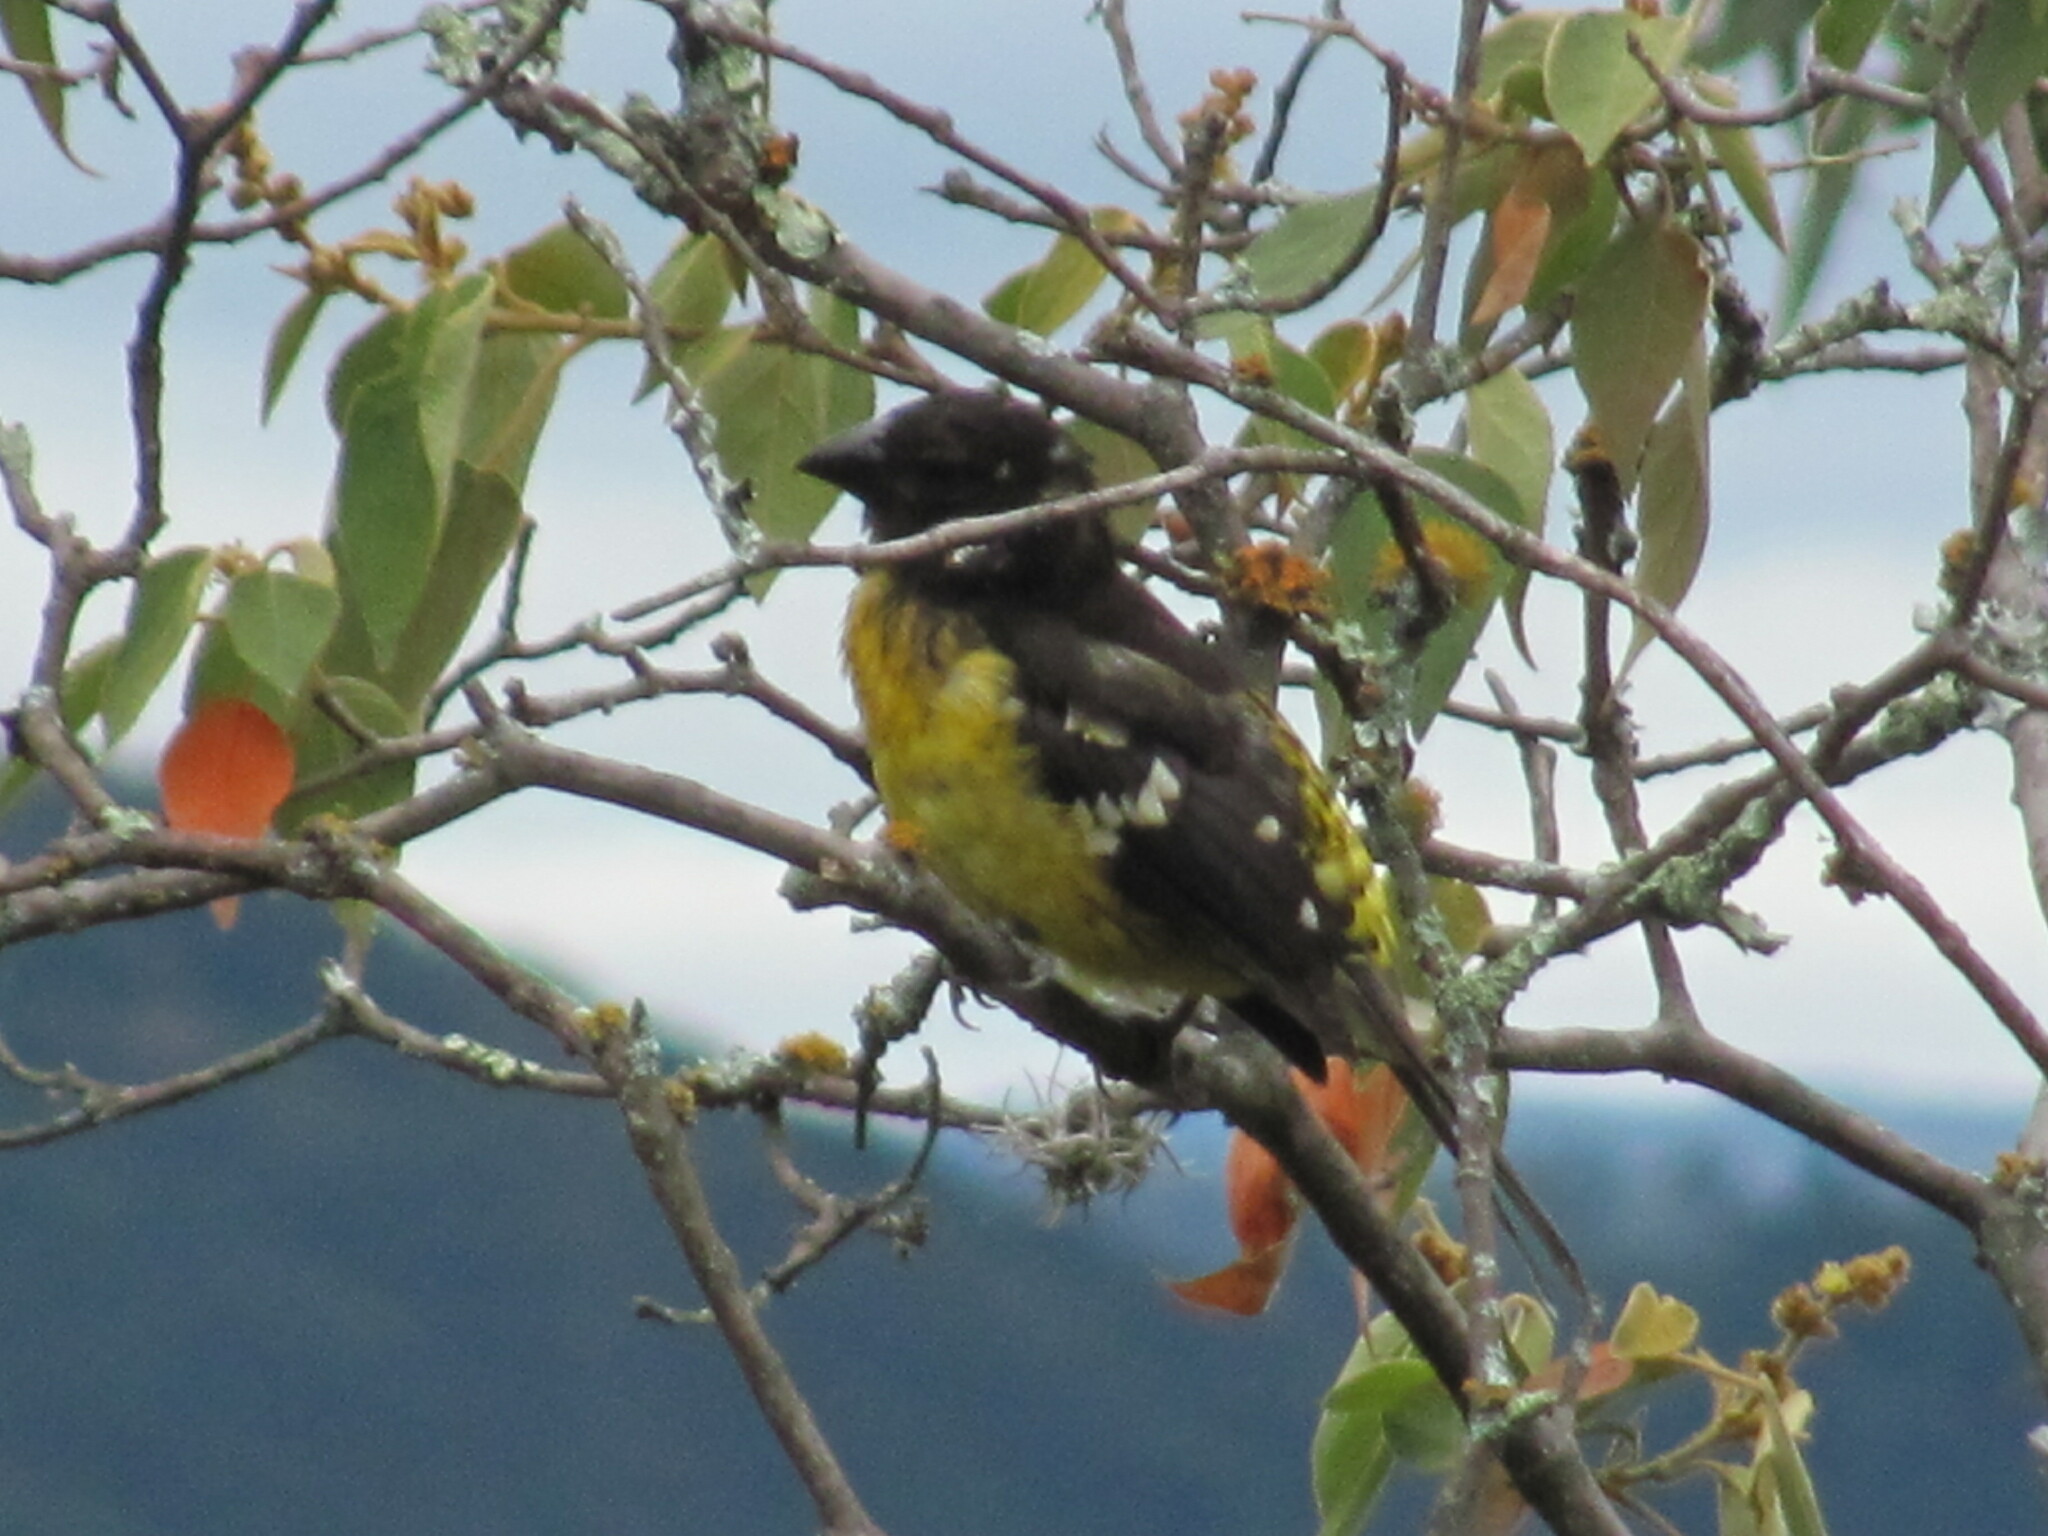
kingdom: Animalia
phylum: Chordata
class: Aves
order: Passeriformes
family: Cardinalidae
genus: Pheucticus
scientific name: Pheucticus aureoventris
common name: Black-backed grosbeak
